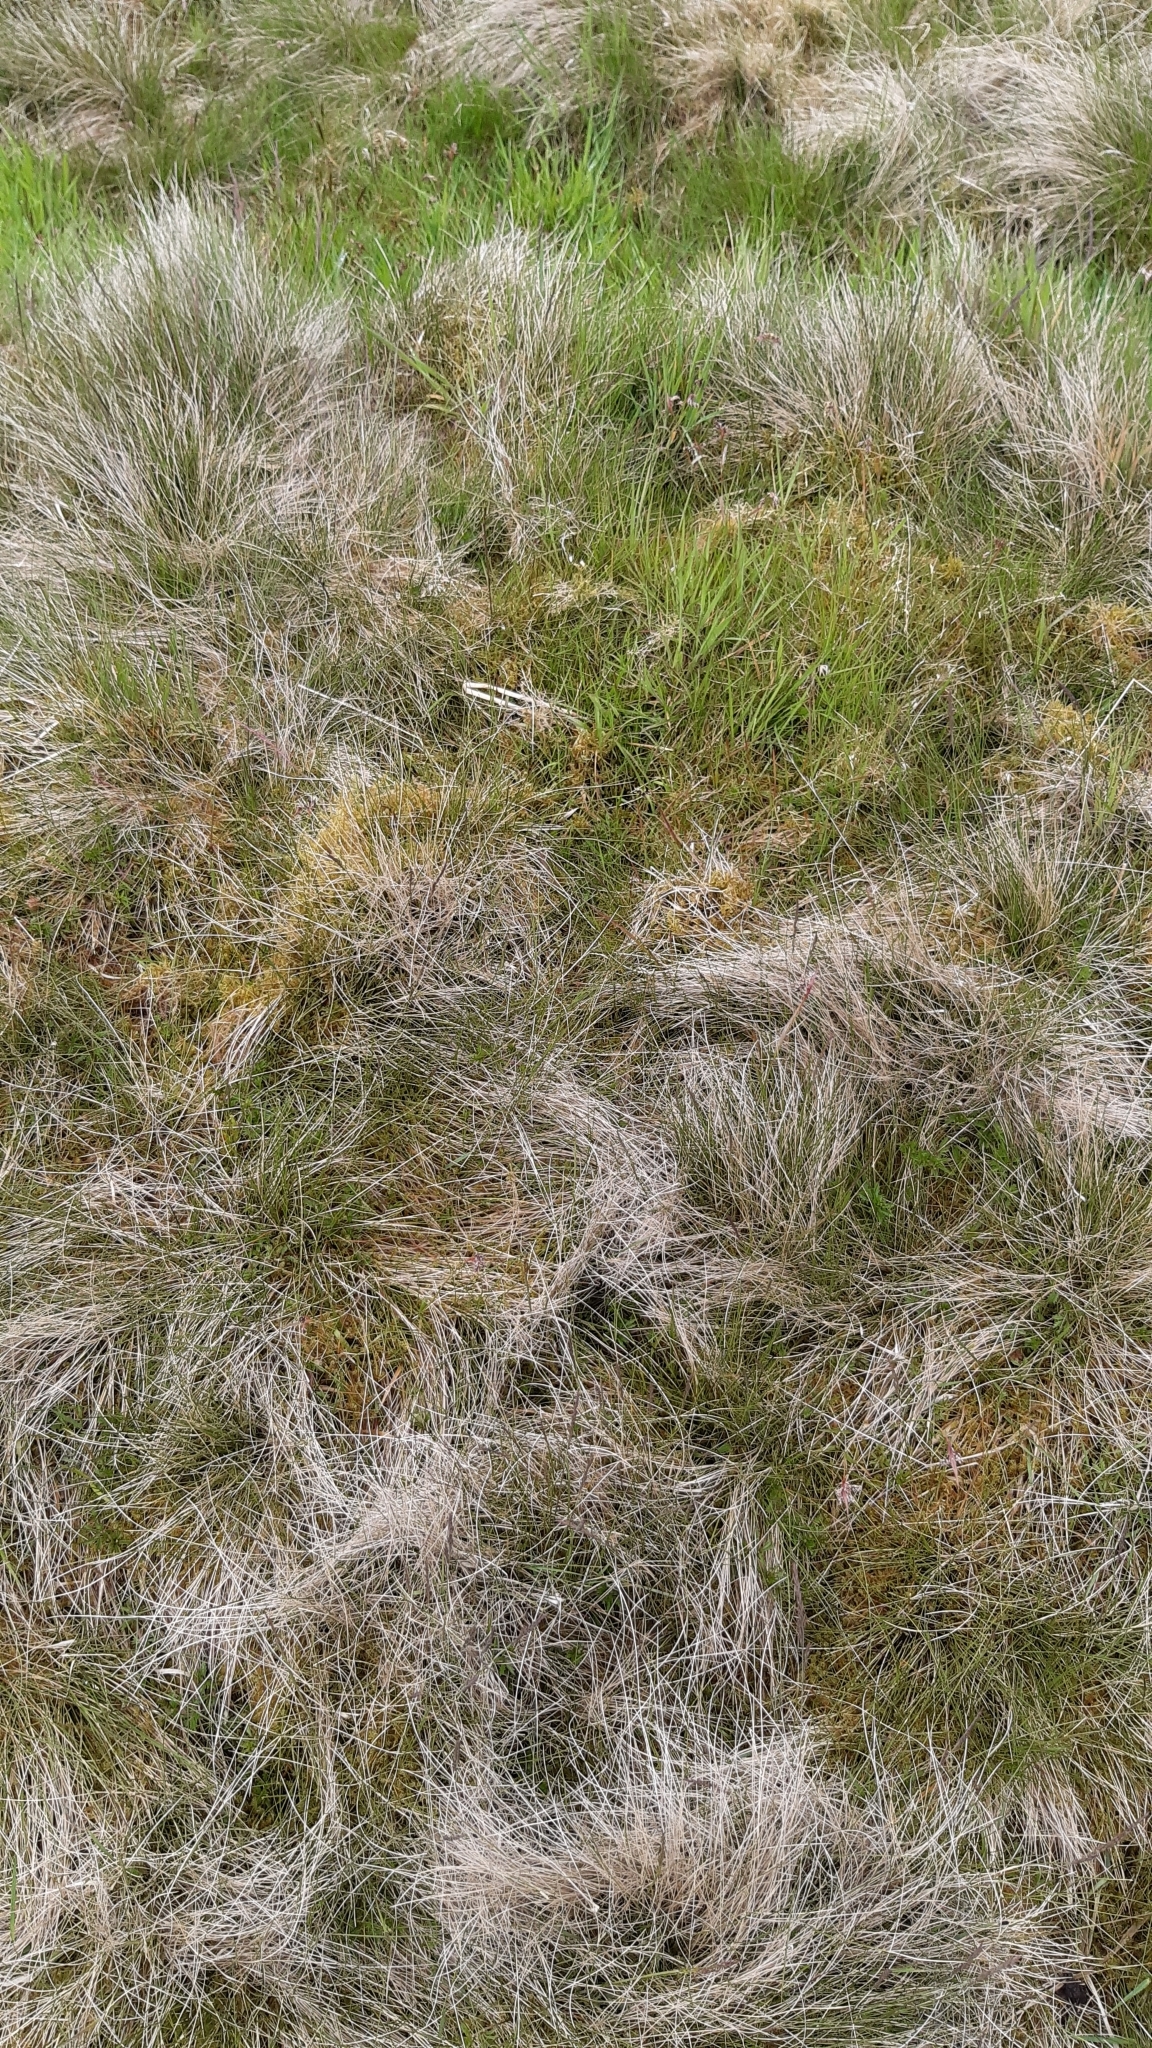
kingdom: Plantae
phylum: Tracheophyta
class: Liliopsida
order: Poales
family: Poaceae
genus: Nardus
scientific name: Nardus stricta
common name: Mat-grass
